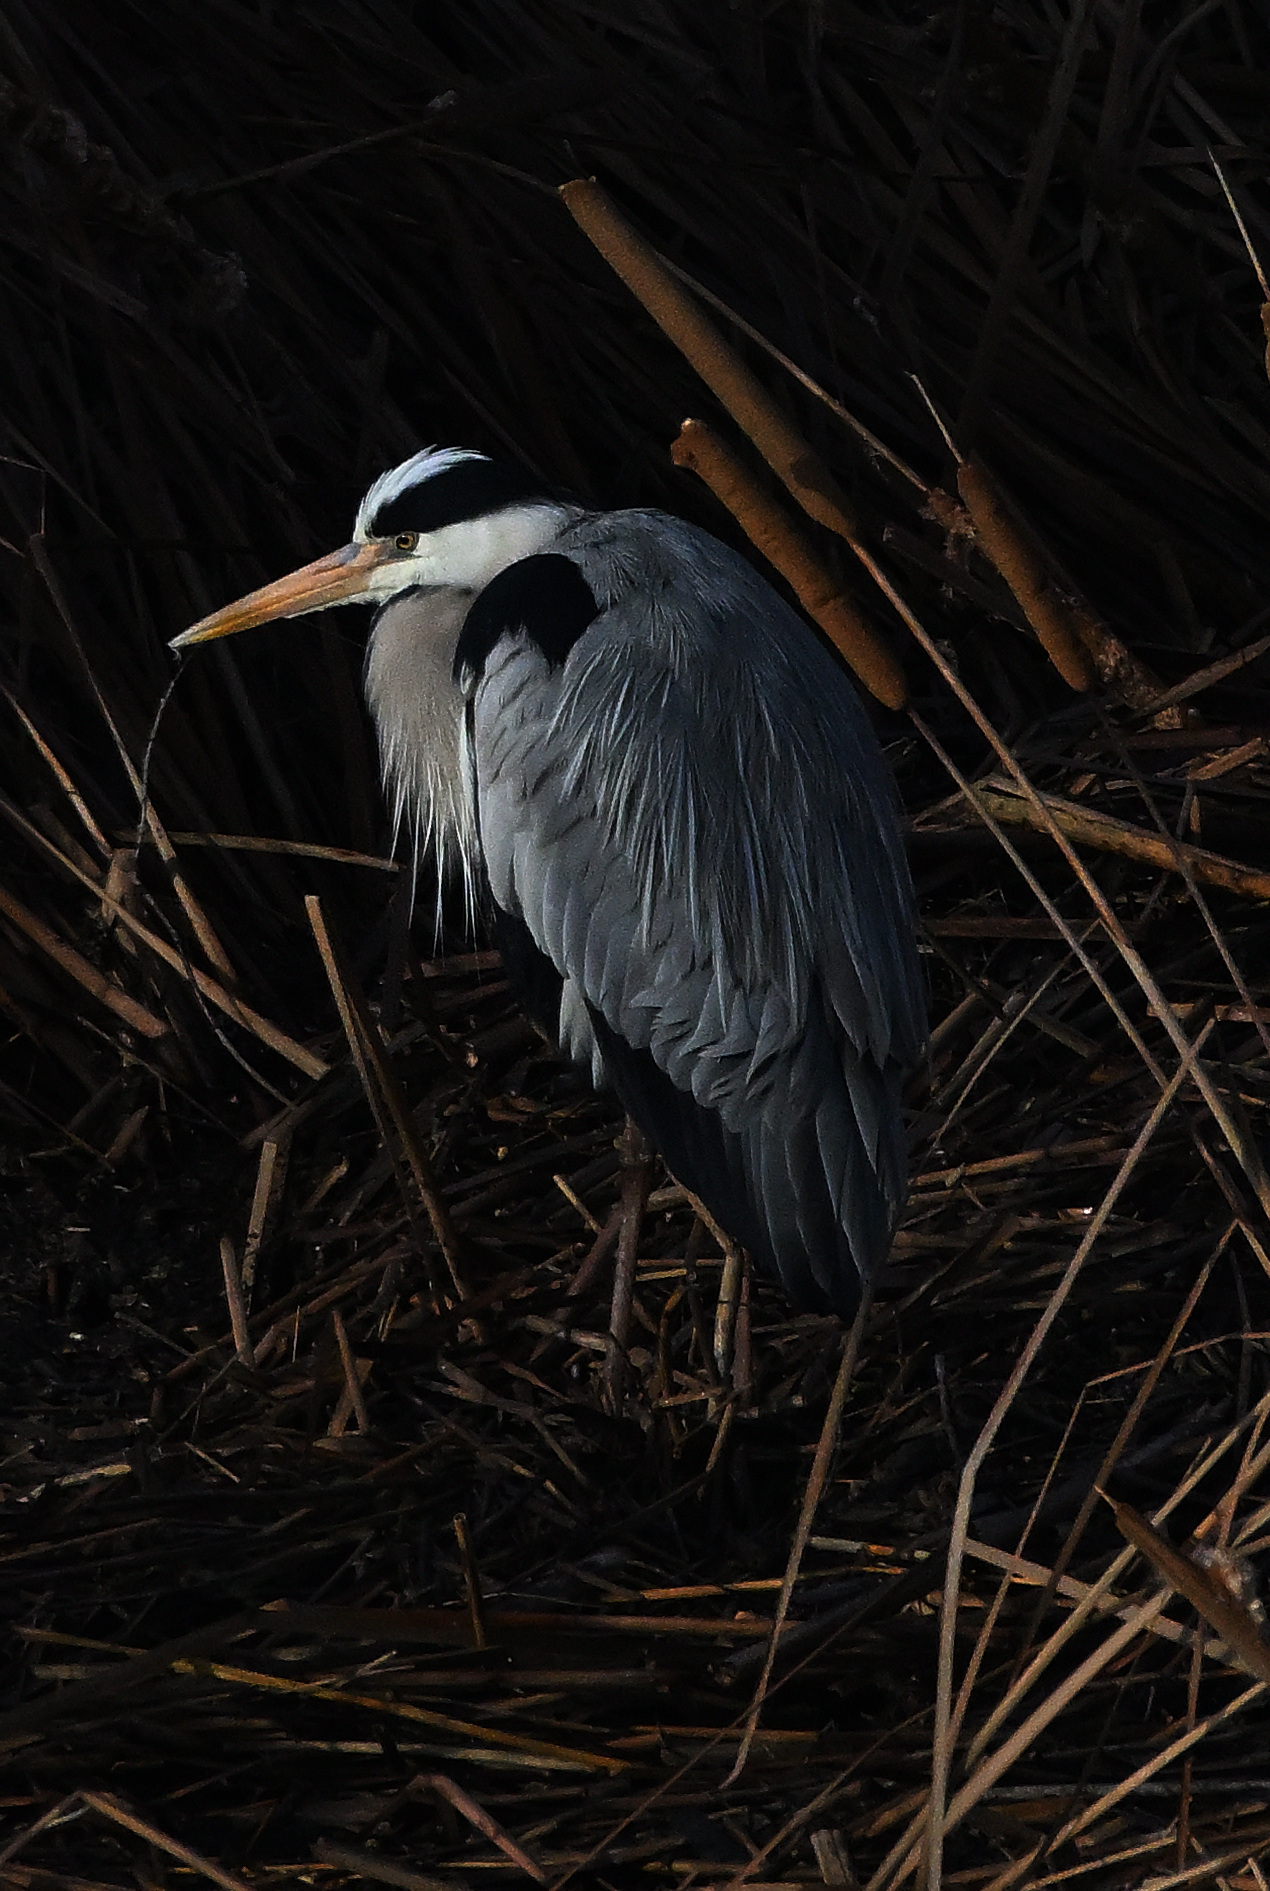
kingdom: Animalia
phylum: Chordata
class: Aves
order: Pelecaniformes
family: Ardeidae
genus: Ardea
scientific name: Ardea cinerea
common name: Grey heron
